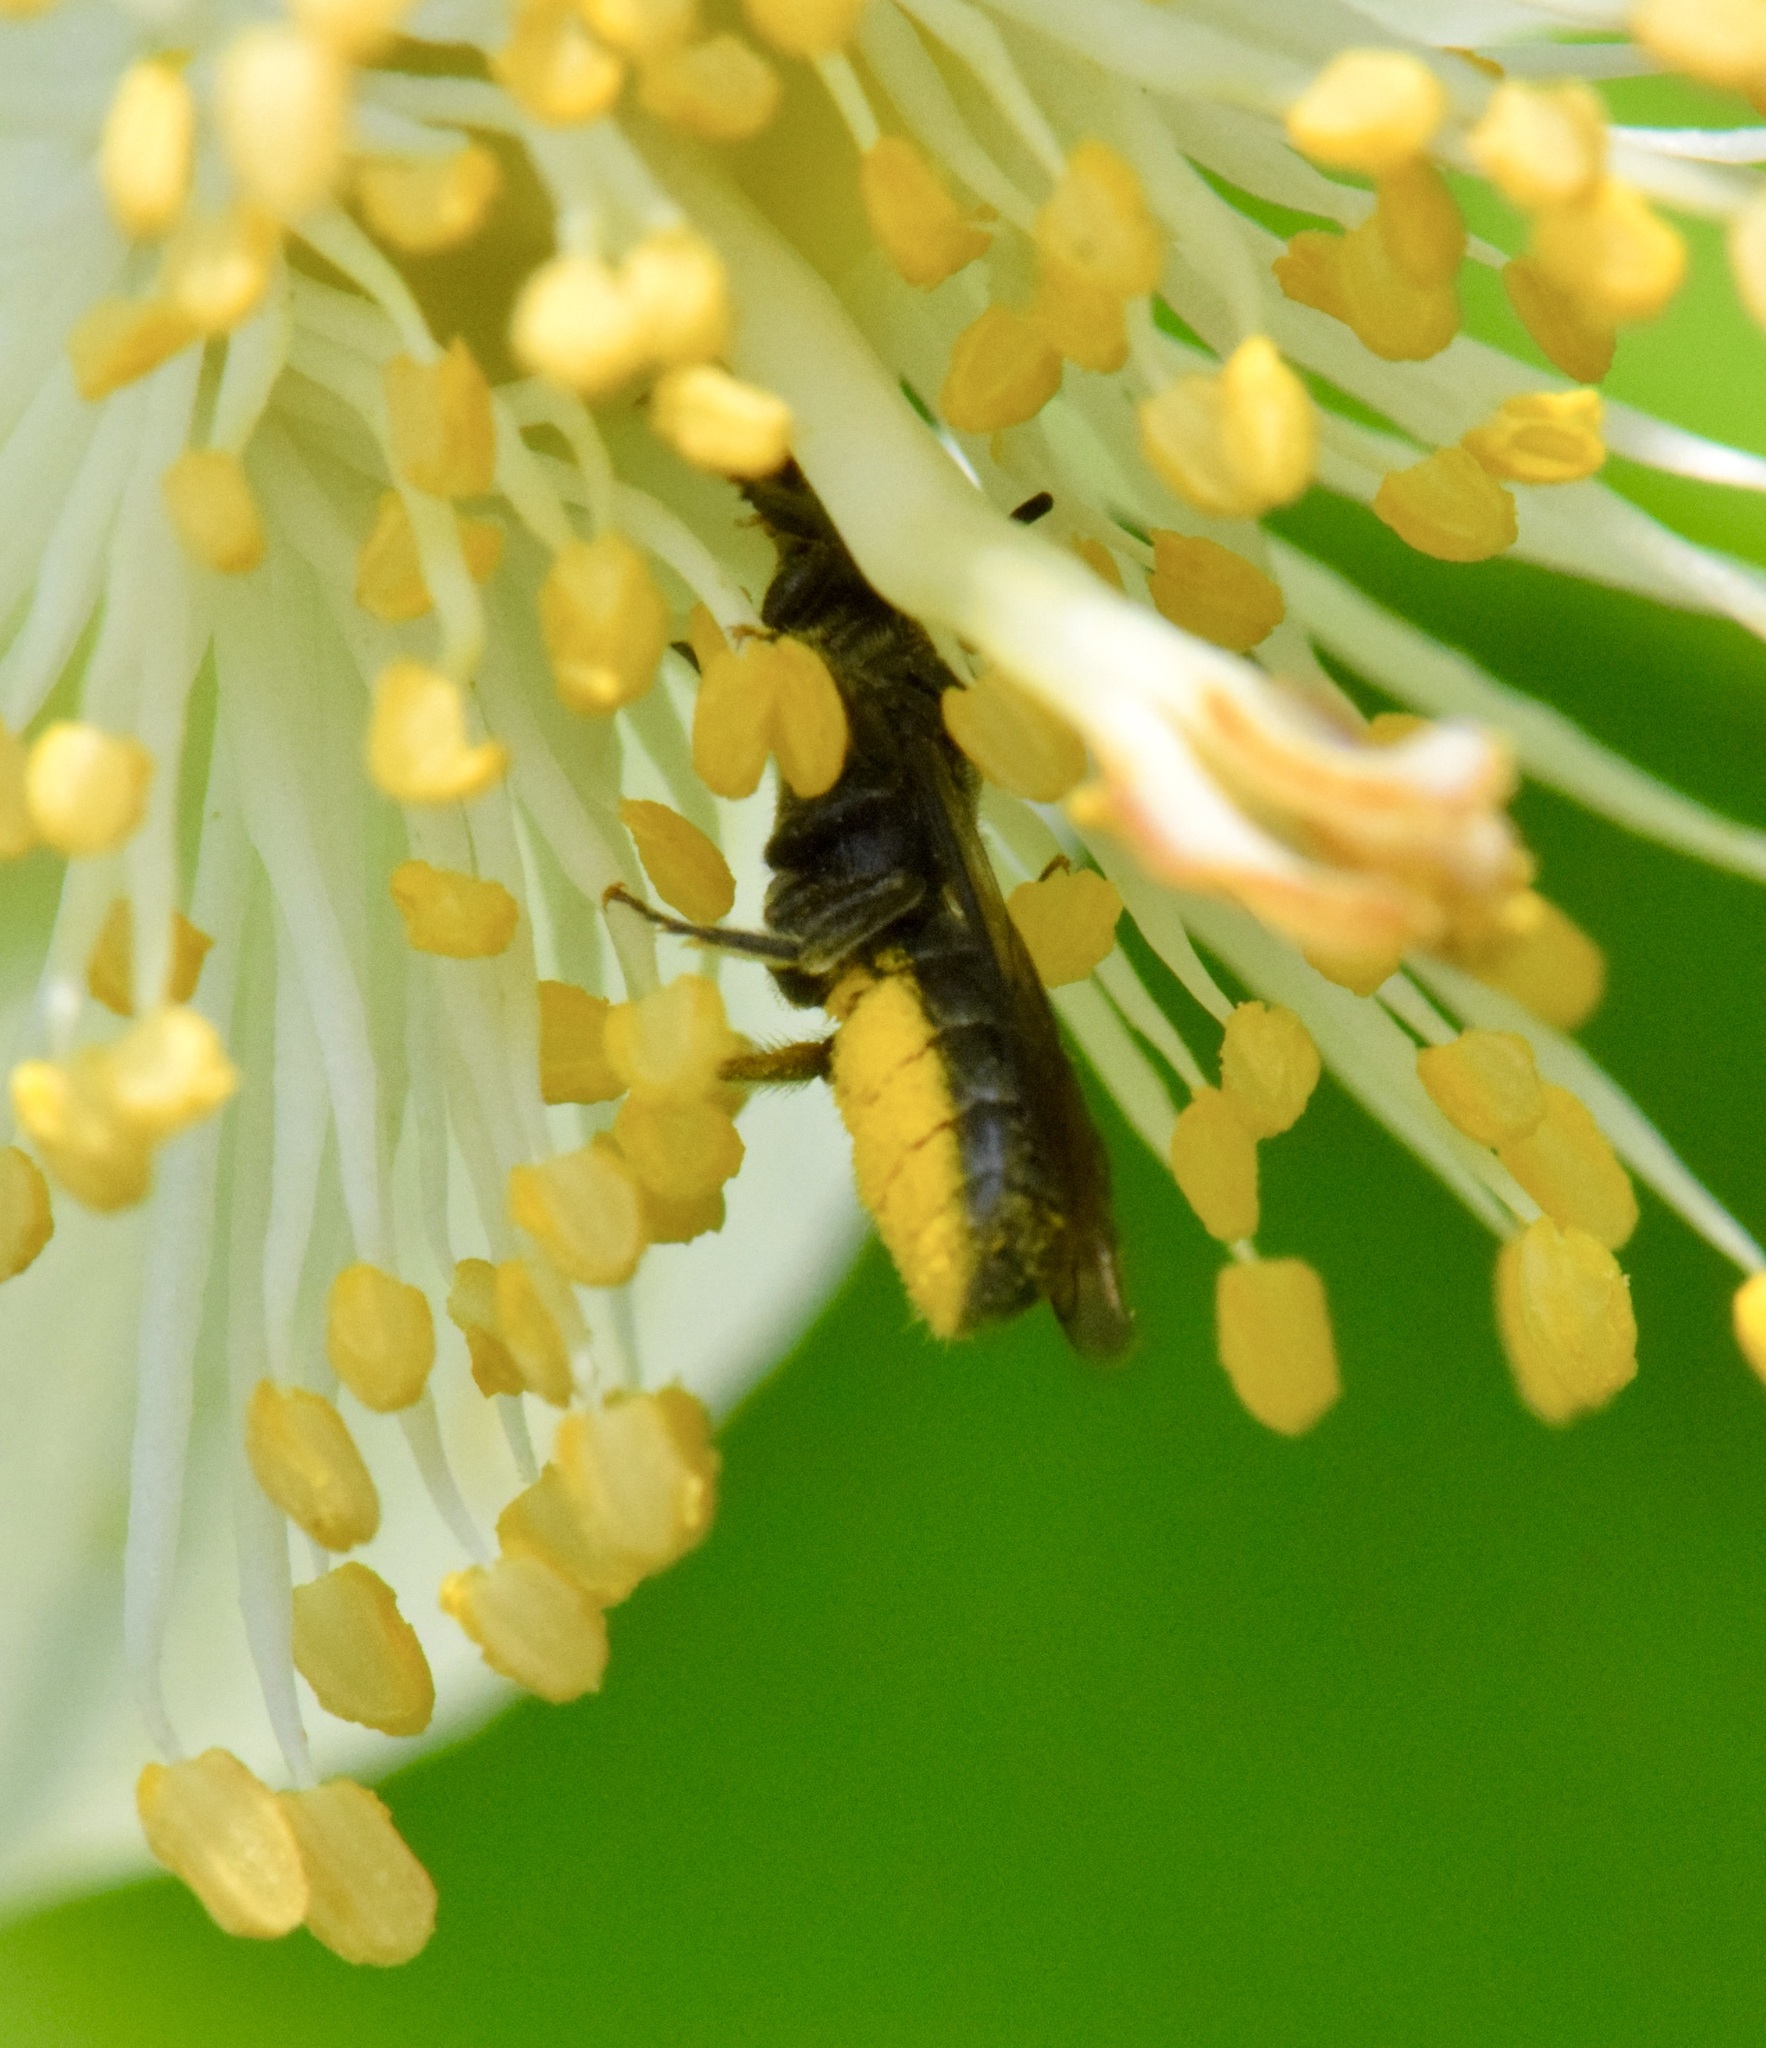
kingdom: Animalia
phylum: Arthropoda
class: Insecta
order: Hymenoptera
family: Megachilidae
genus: Chelostoma
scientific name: Chelostoma philadelphi
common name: Mock-orange scissor bee
